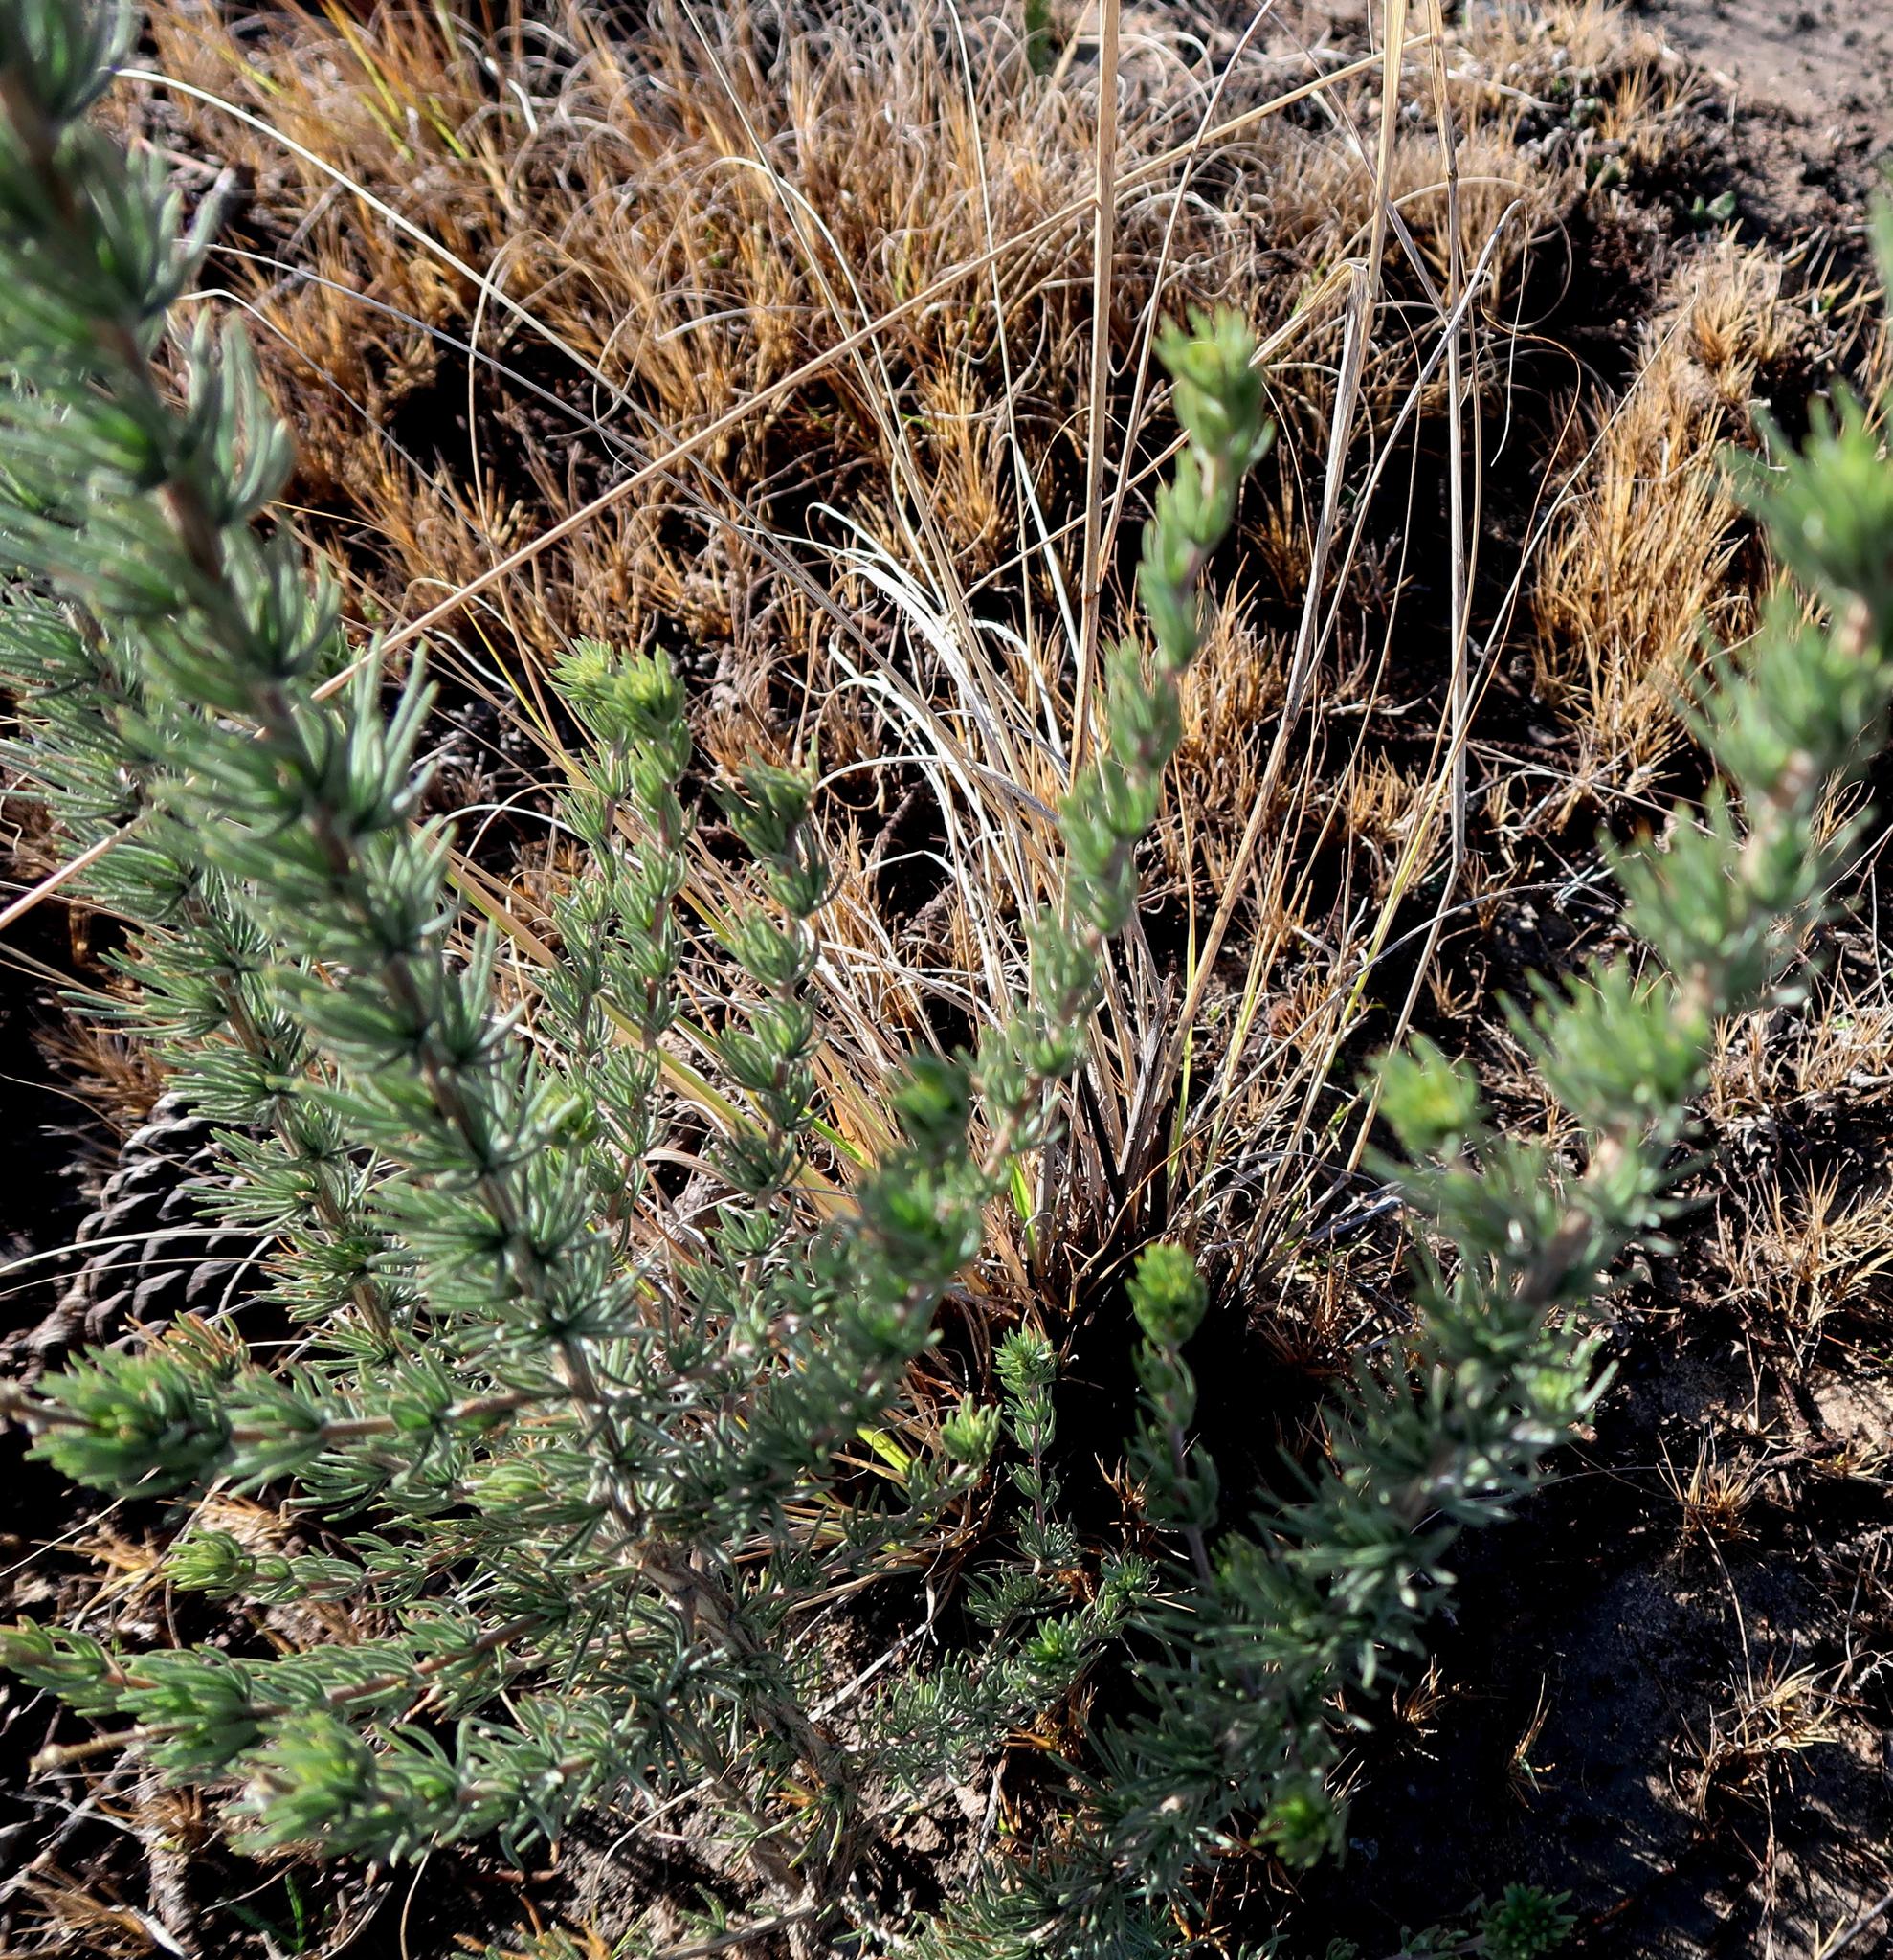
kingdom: Plantae
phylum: Tracheophyta
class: Magnoliopsida
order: Fabales
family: Fabaceae
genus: Aspalathus
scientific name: Aspalathus bowieana
